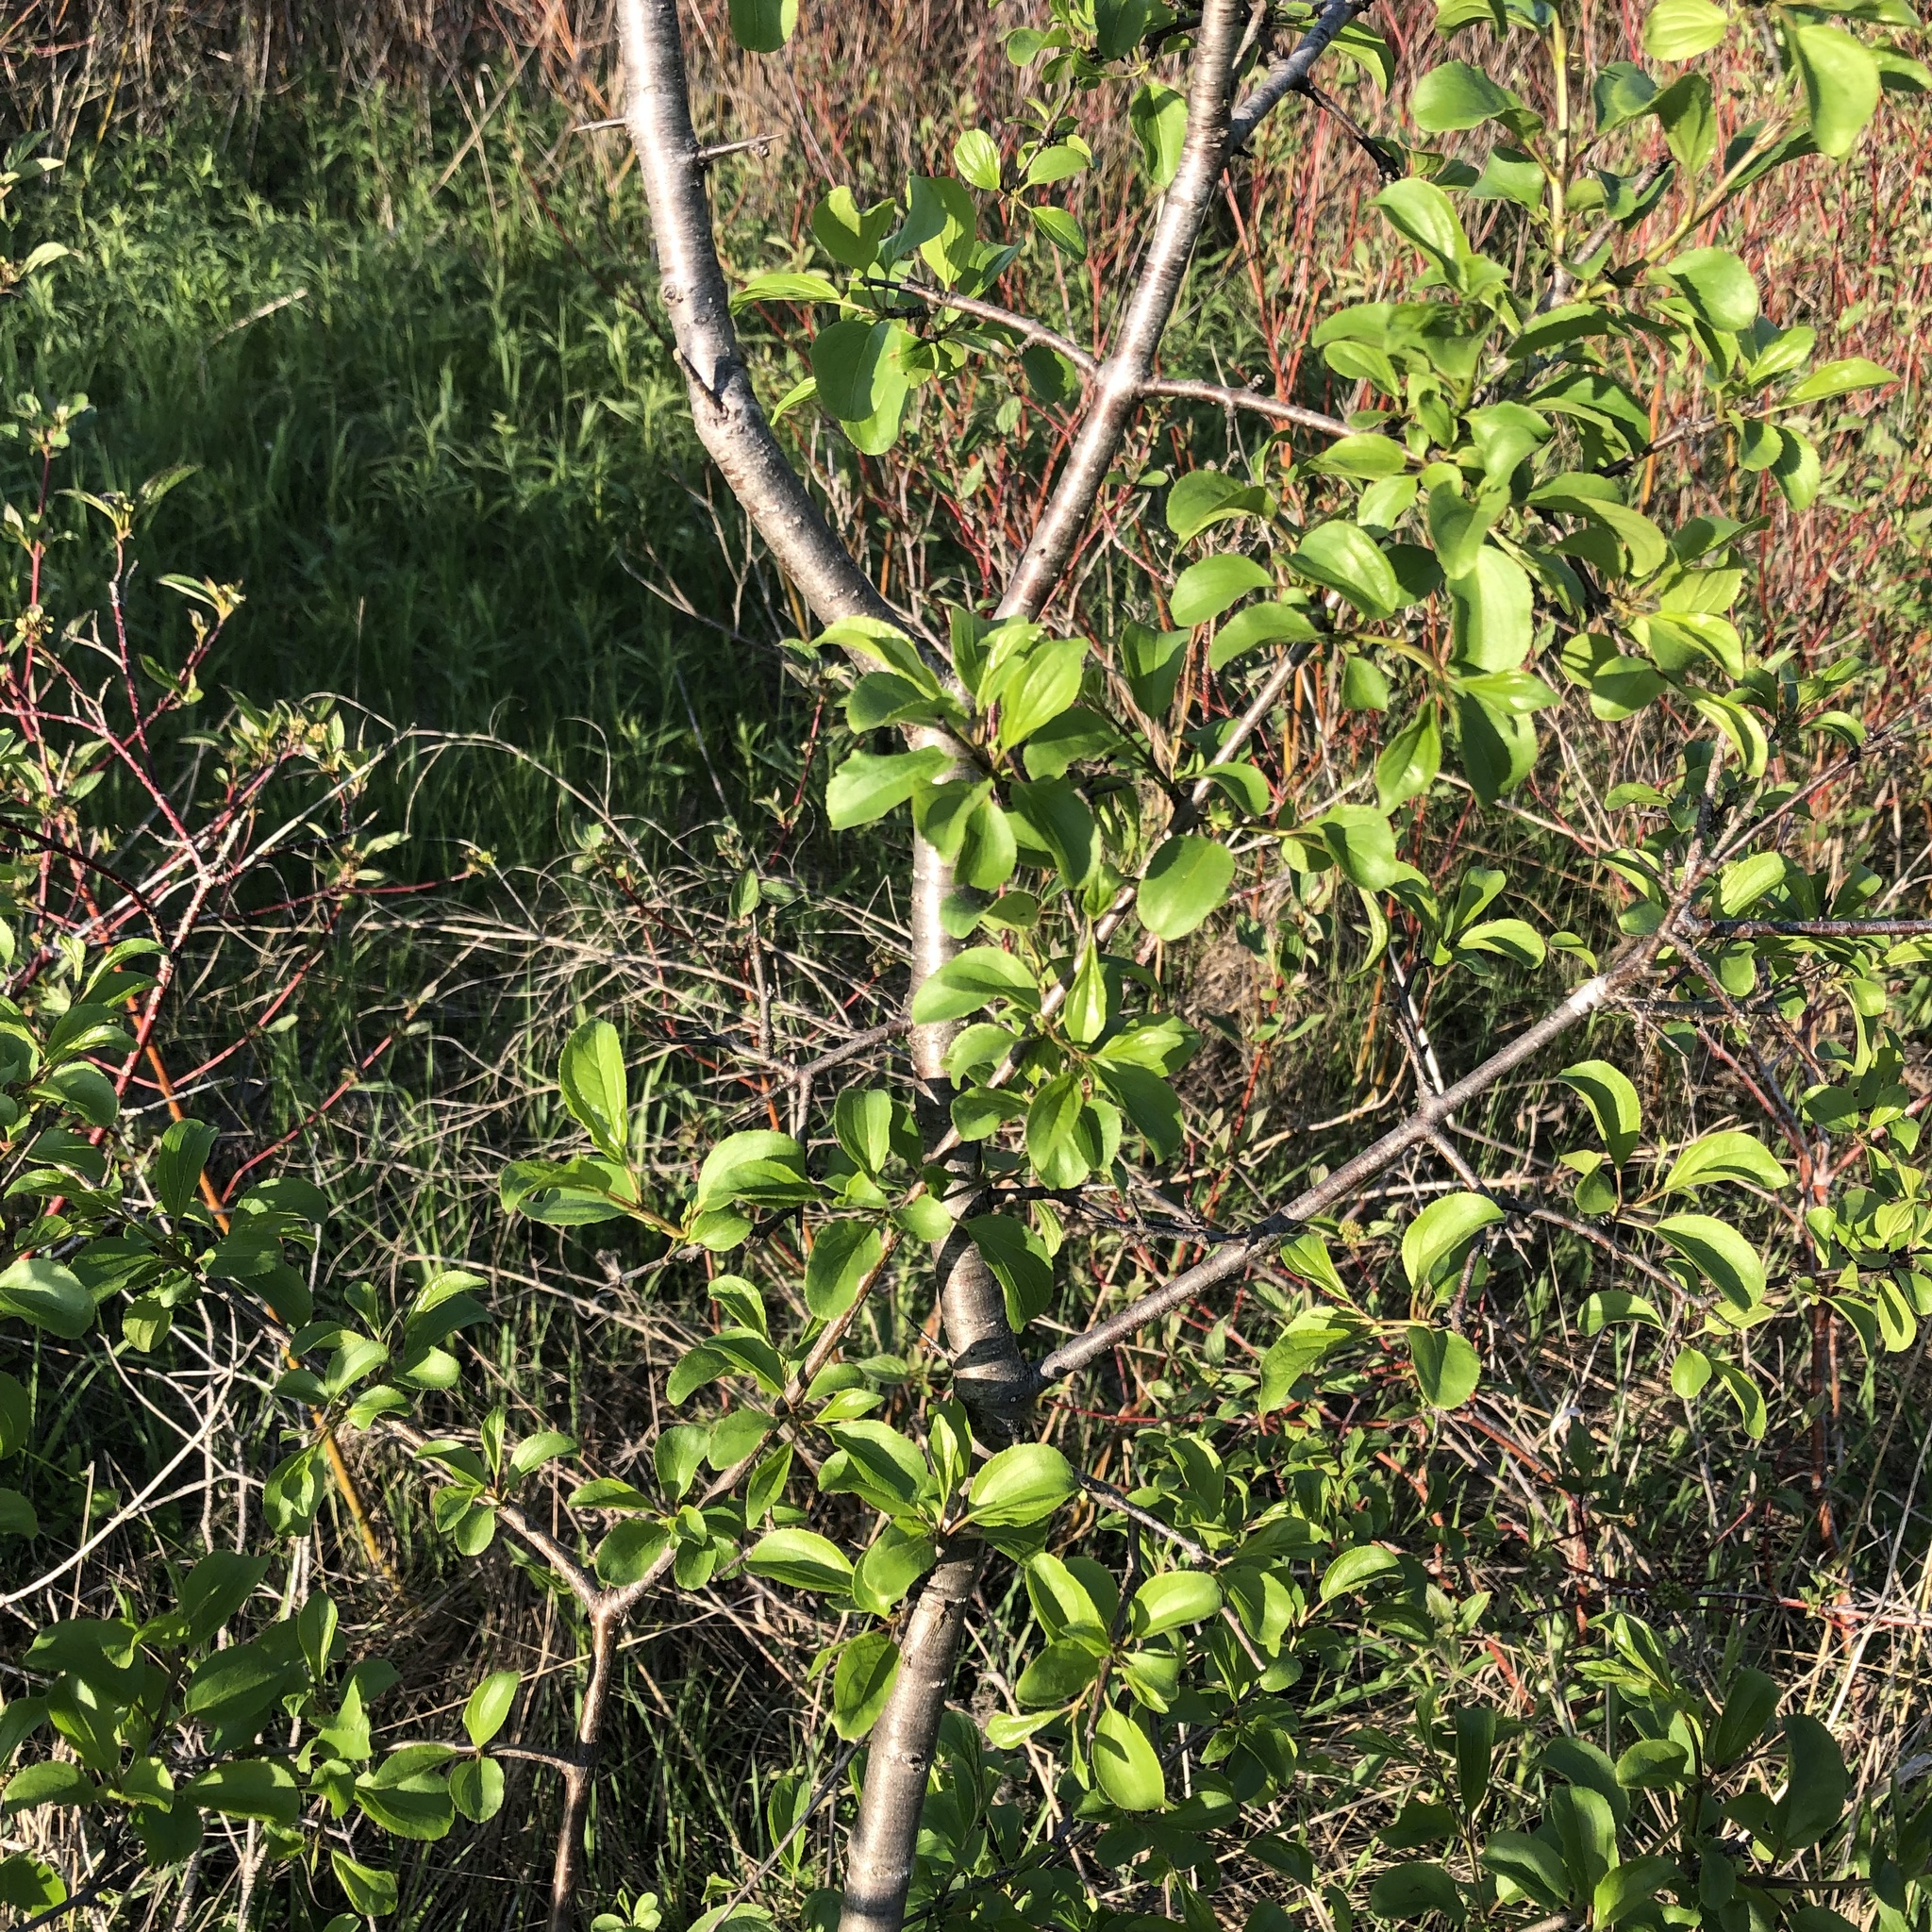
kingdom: Plantae
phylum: Tracheophyta
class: Magnoliopsida
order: Rosales
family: Rhamnaceae
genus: Rhamnus
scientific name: Rhamnus cathartica
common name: Common buckthorn
